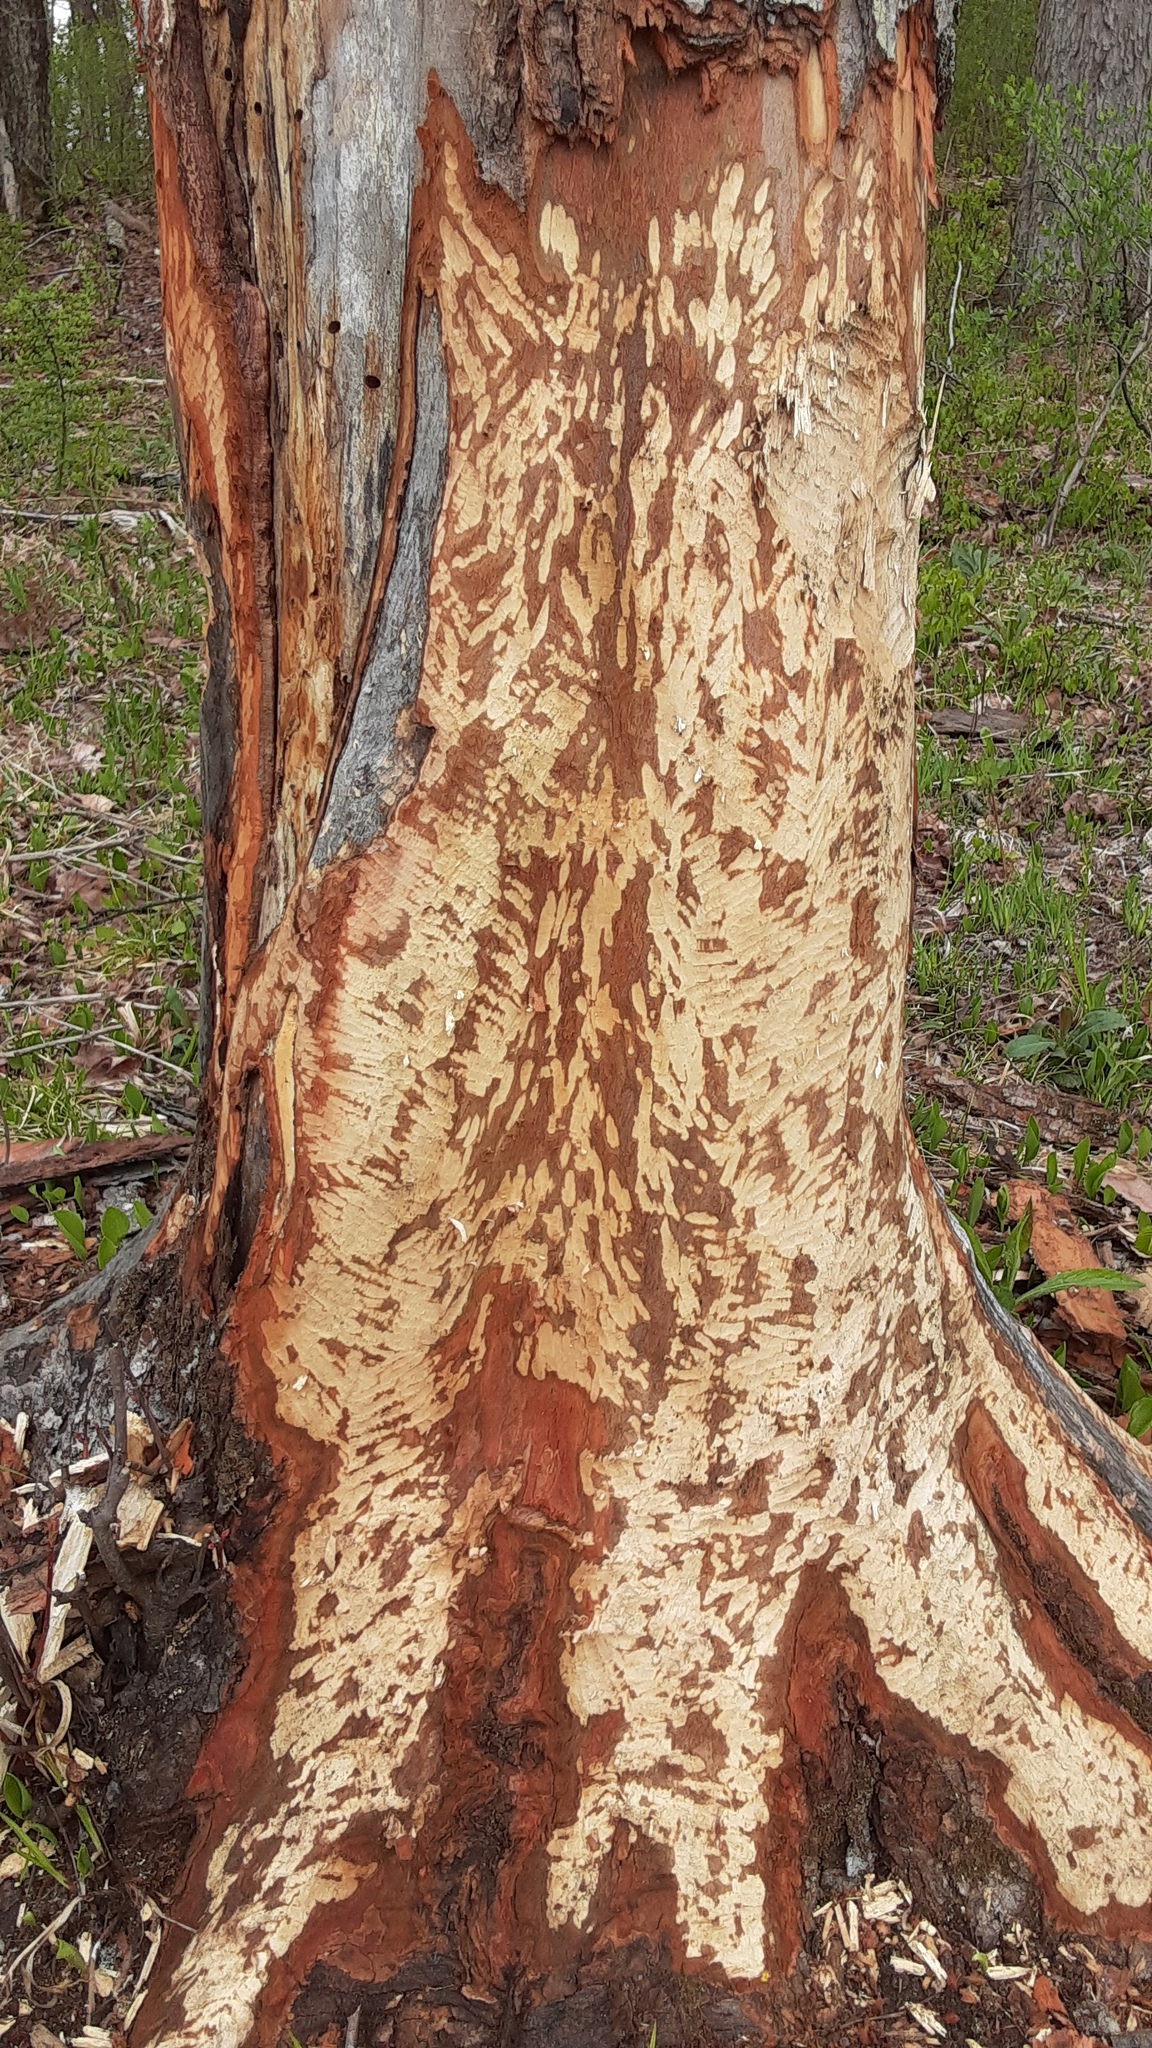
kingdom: Animalia
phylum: Chordata
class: Mammalia
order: Rodentia
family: Castoridae
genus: Castor
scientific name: Castor canadensis
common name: American beaver
